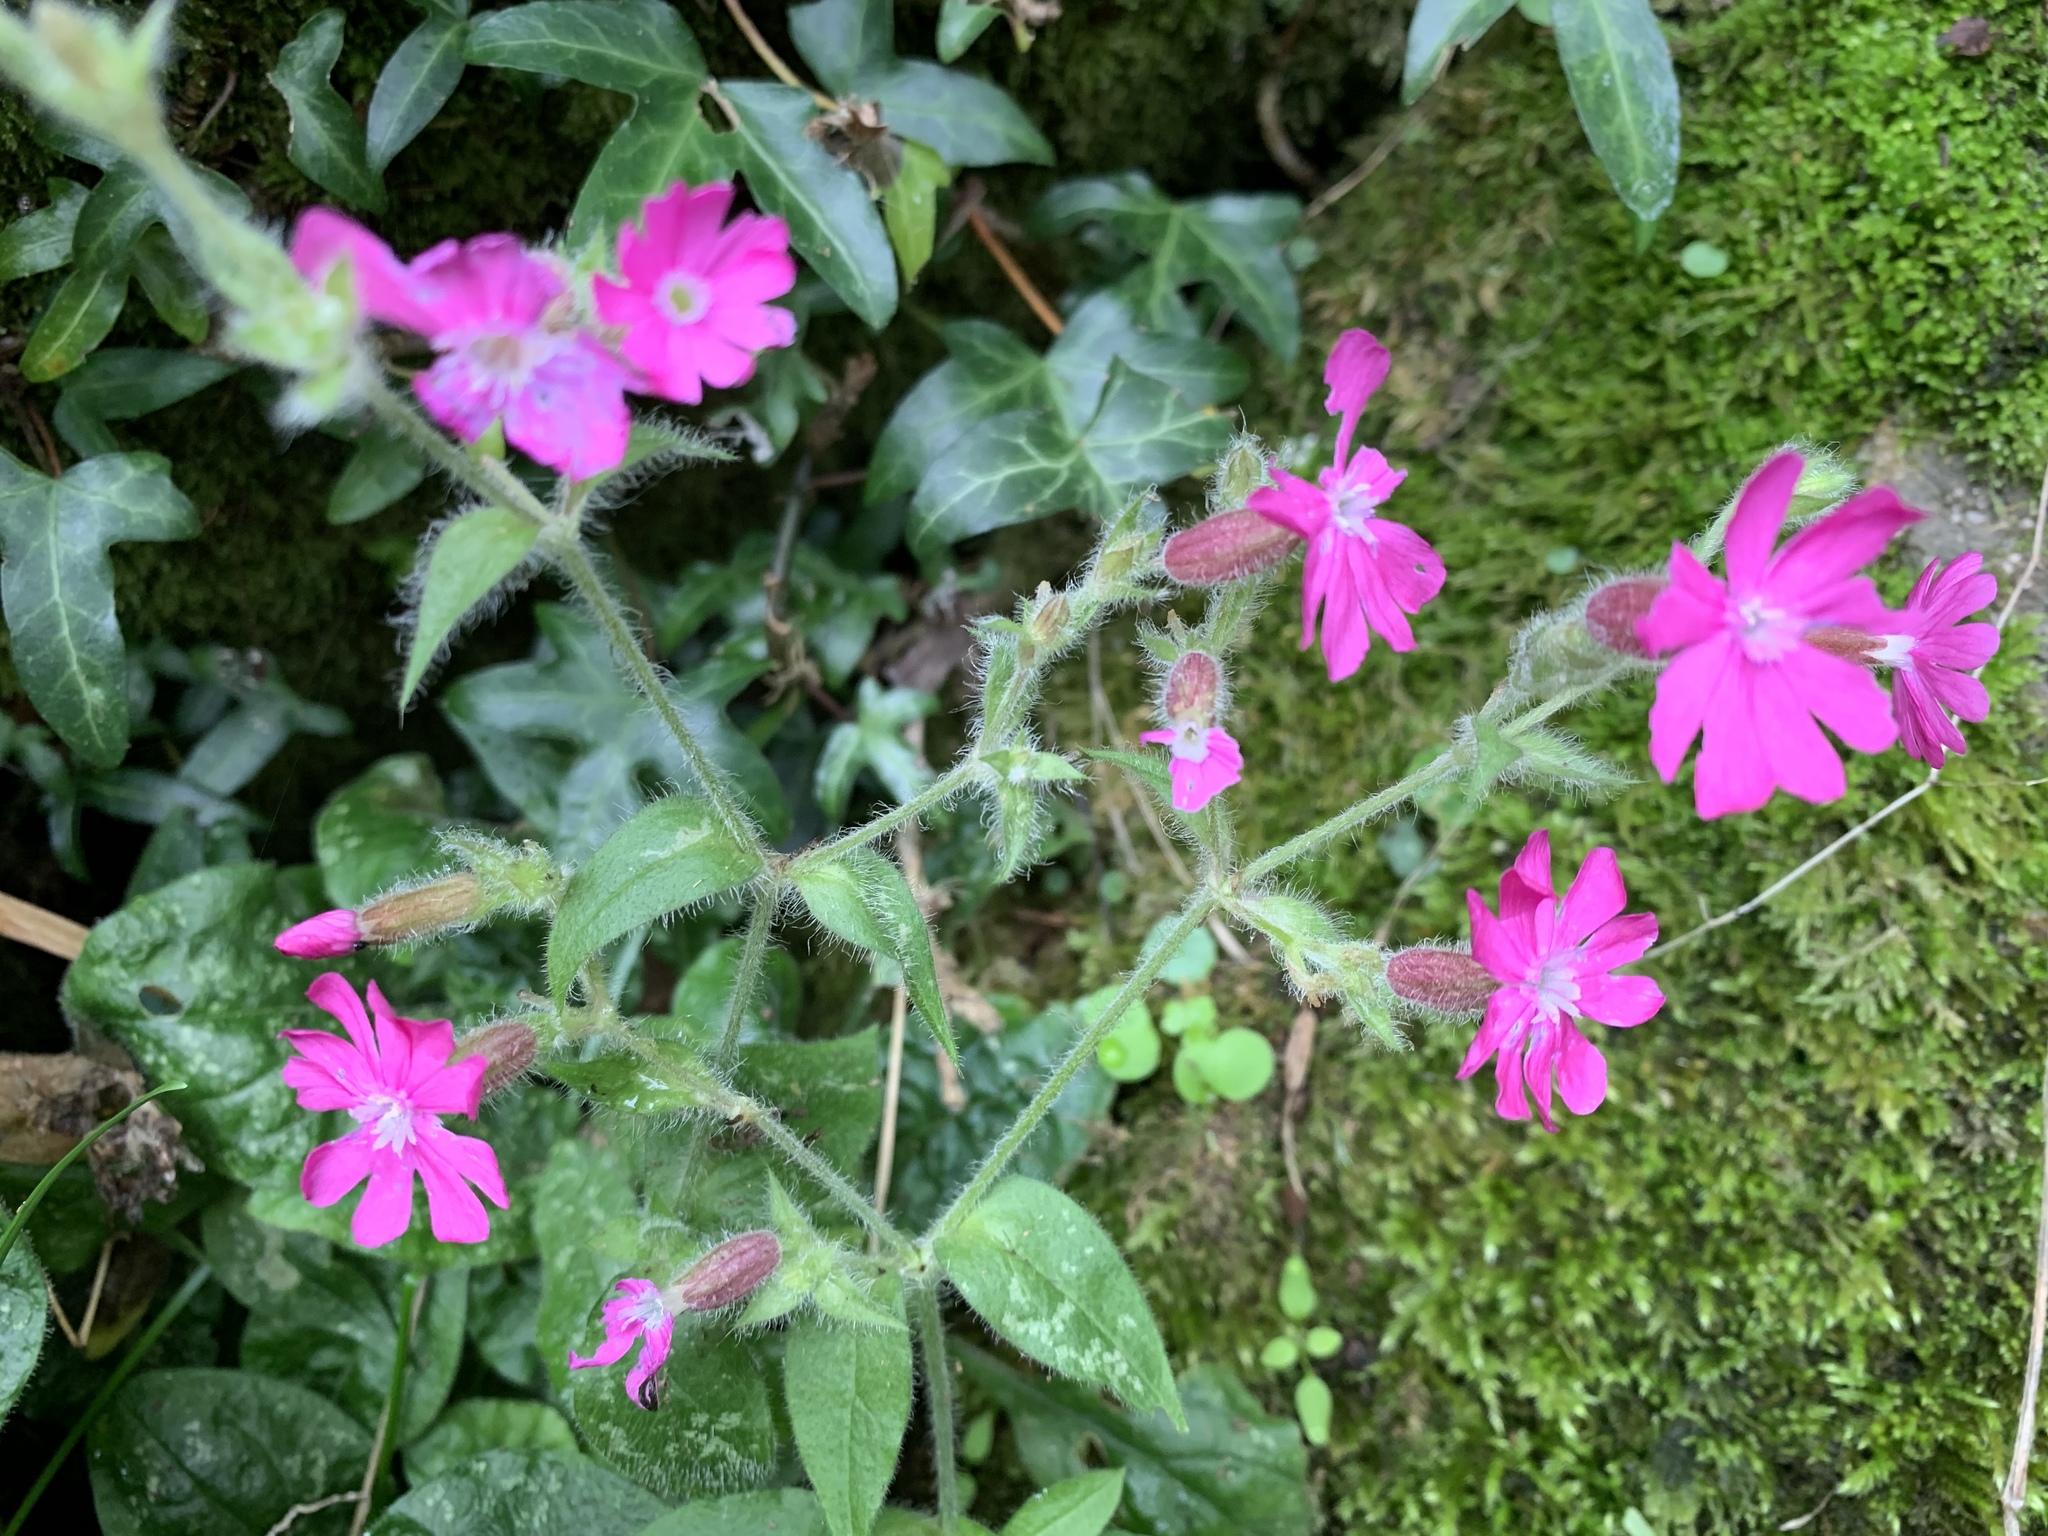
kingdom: Plantae
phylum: Tracheophyta
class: Magnoliopsida
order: Caryophyllales
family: Caryophyllaceae
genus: Silene
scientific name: Silene dioica
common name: Red campion
